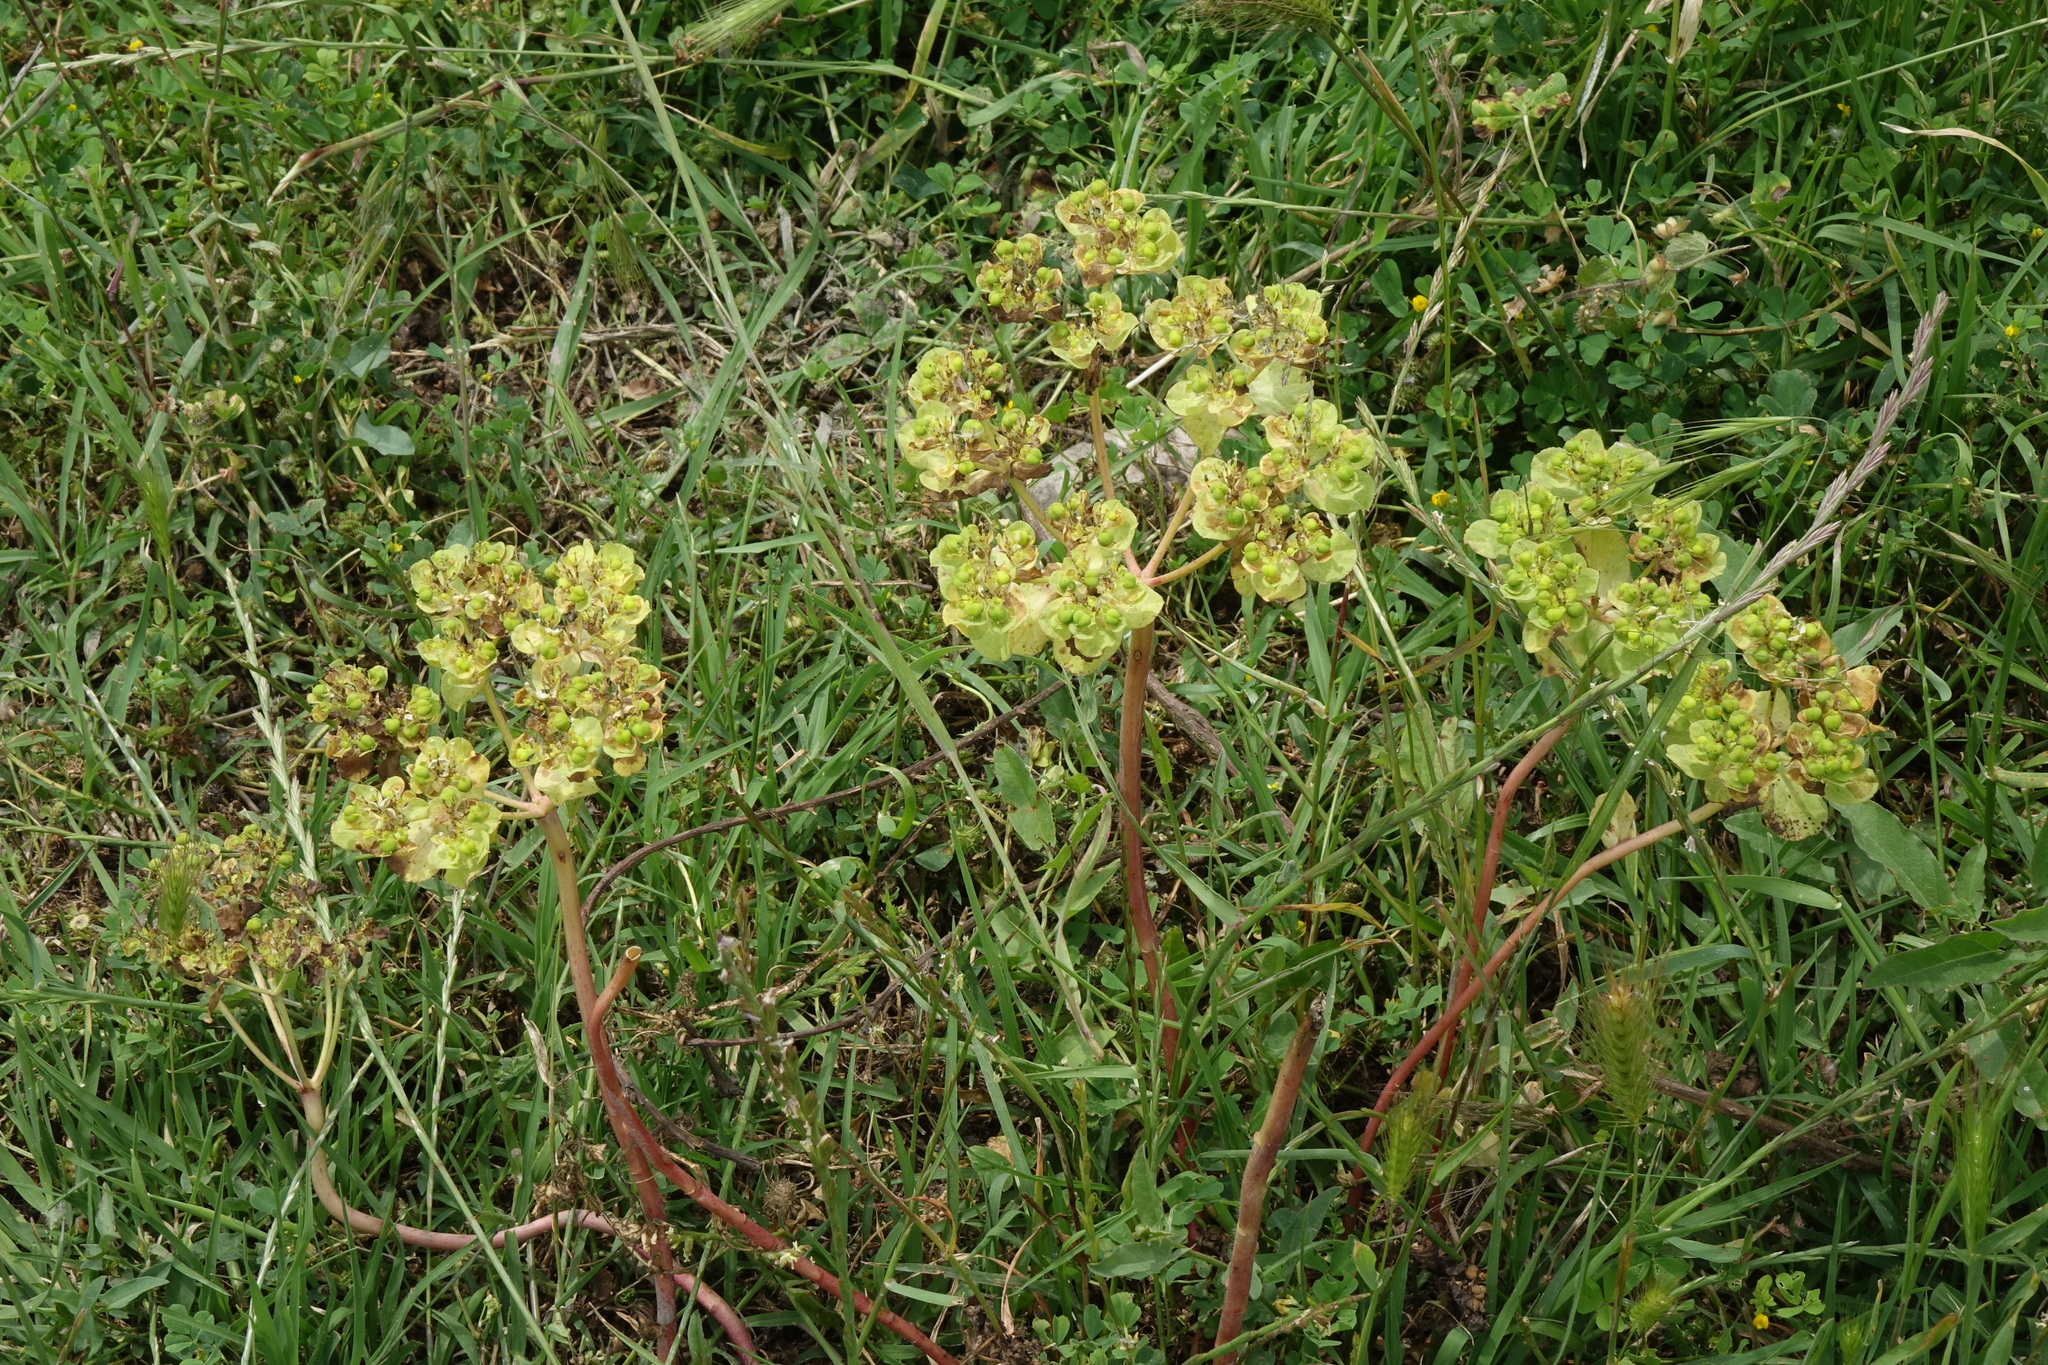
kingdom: Plantae
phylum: Tracheophyta
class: Magnoliopsida
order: Malpighiales
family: Euphorbiaceae
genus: Euphorbia
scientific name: Euphorbia helioscopia
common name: Sun spurge
